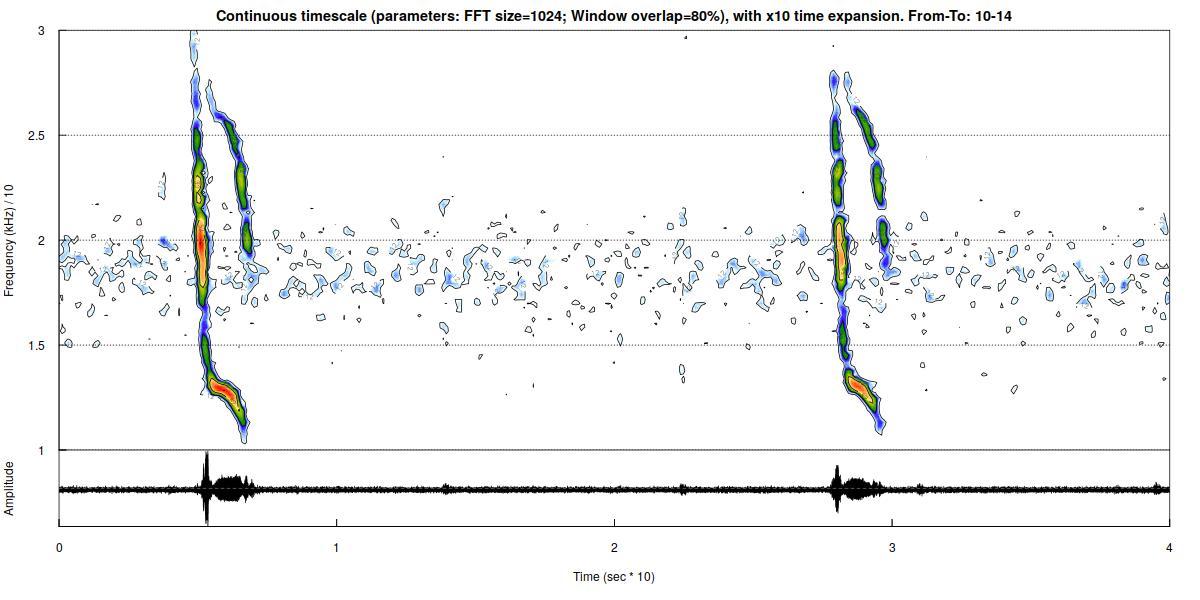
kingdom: Animalia
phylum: Chordata
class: Mammalia
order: Chiroptera
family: Vespertilionidae
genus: Vespertilio
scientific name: Vespertilio murinus
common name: Particolored bat
